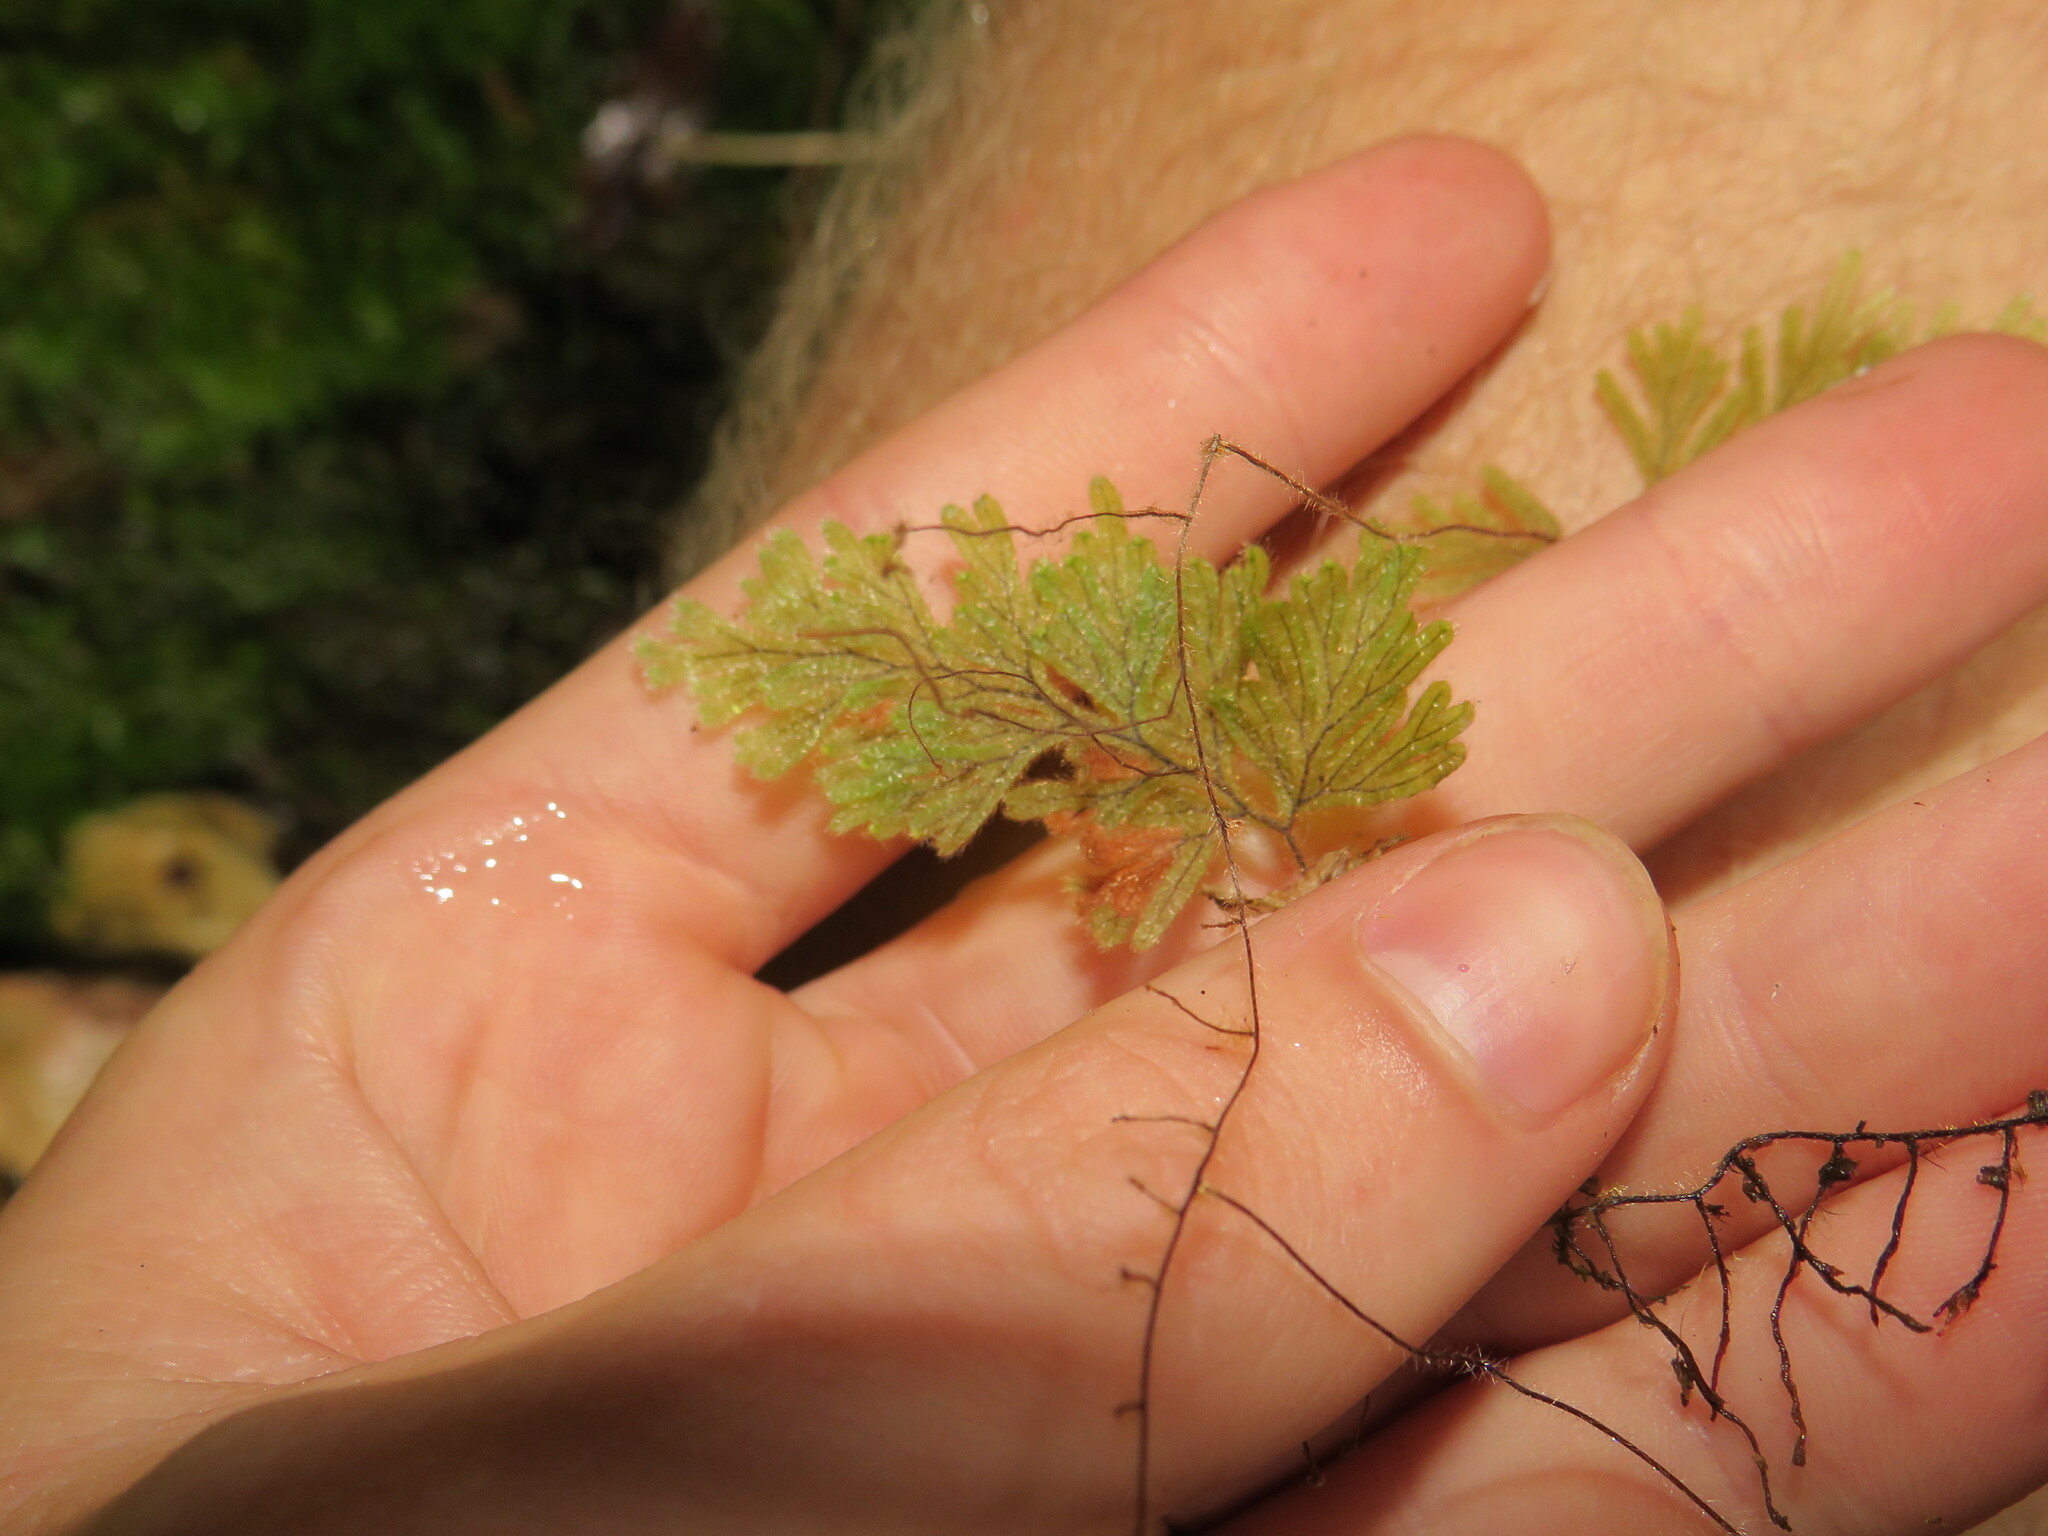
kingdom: Plantae
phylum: Tracheophyta
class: Polypodiopsida
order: Hymenophyllales
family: Hymenophyllaceae
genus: Hymenophyllum
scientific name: Hymenophyllum aeruginosum
